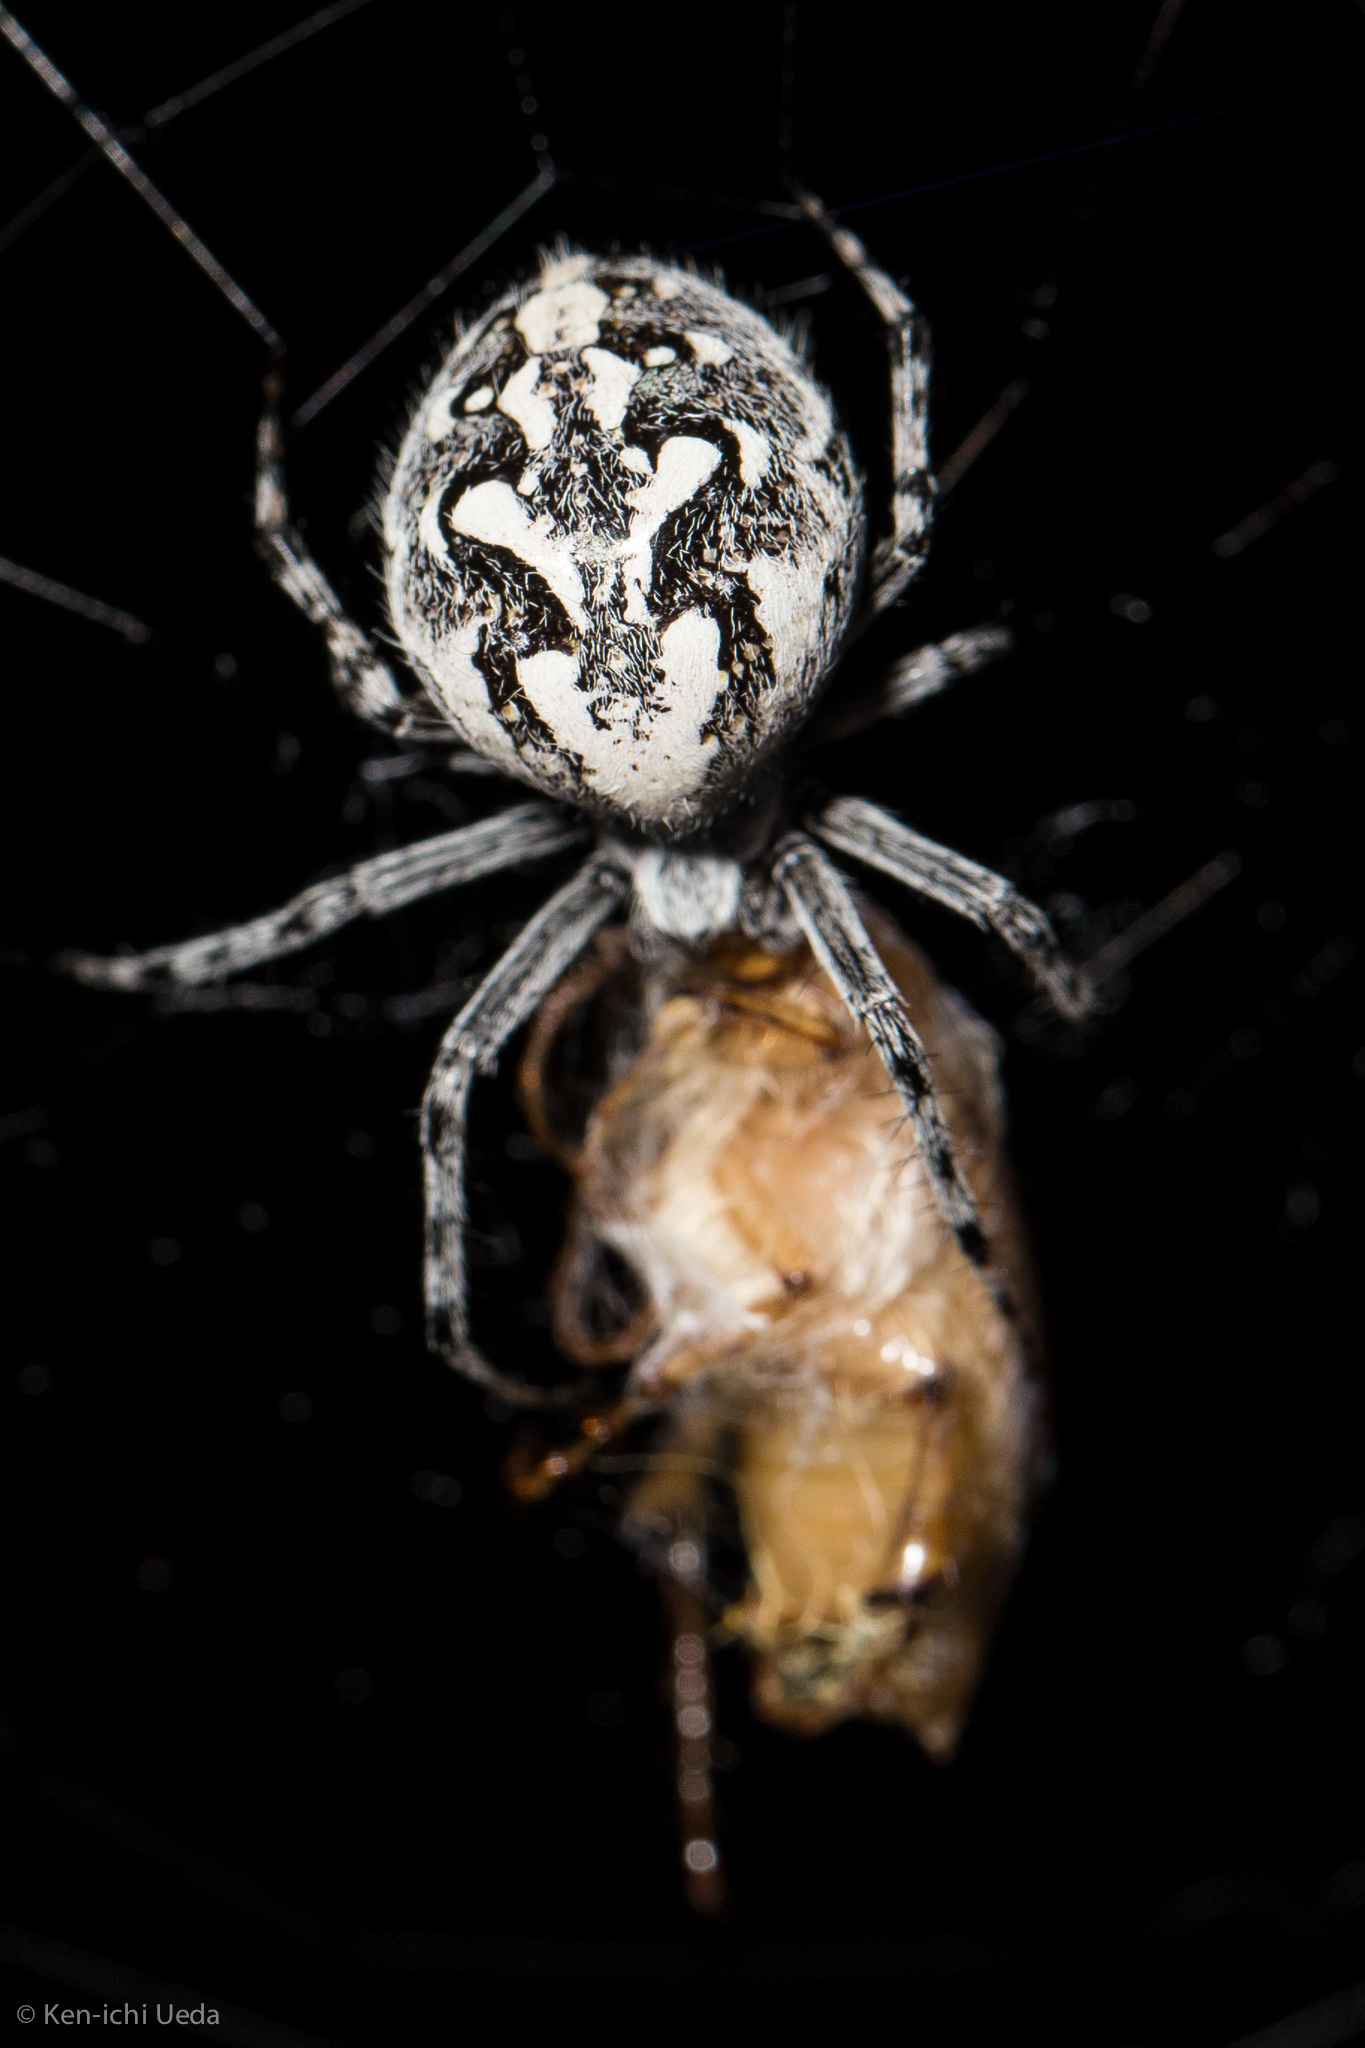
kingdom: Animalia
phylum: Arthropoda
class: Arachnida
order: Araneae
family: Araneidae
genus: Aculepeira
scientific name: Aculepeira packardi
